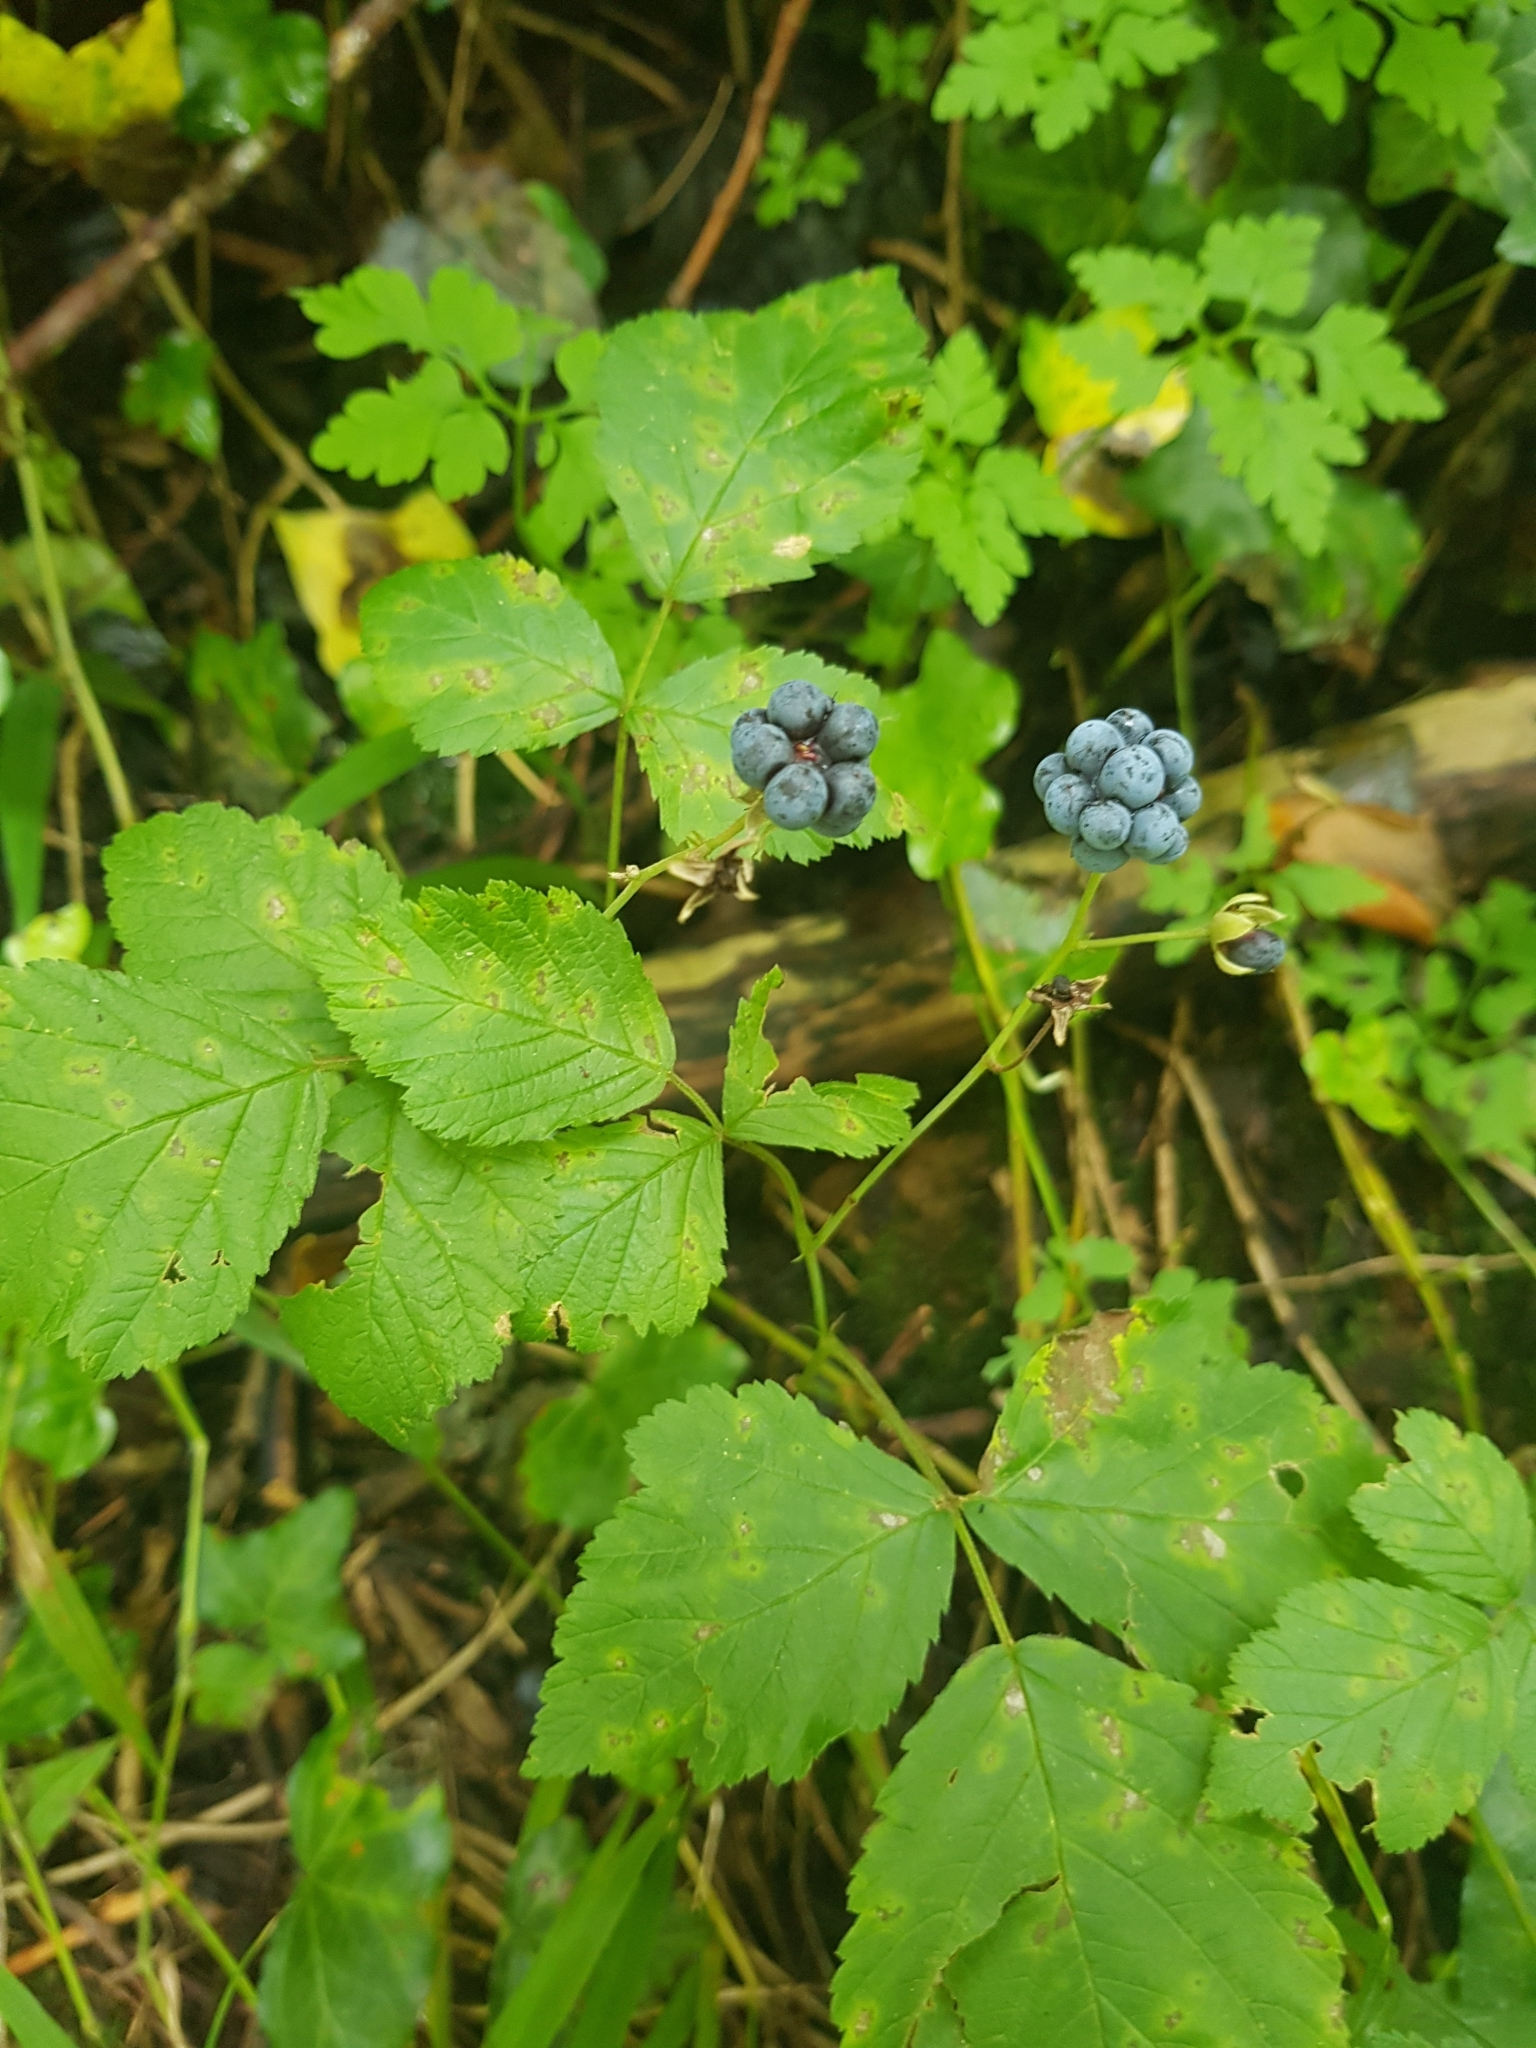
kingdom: Plantae
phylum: Tracheophyta
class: Magnoliopsida
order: Rosales
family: Rosaceae
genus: Rubus
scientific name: Rubus caesius
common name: Dewberry
